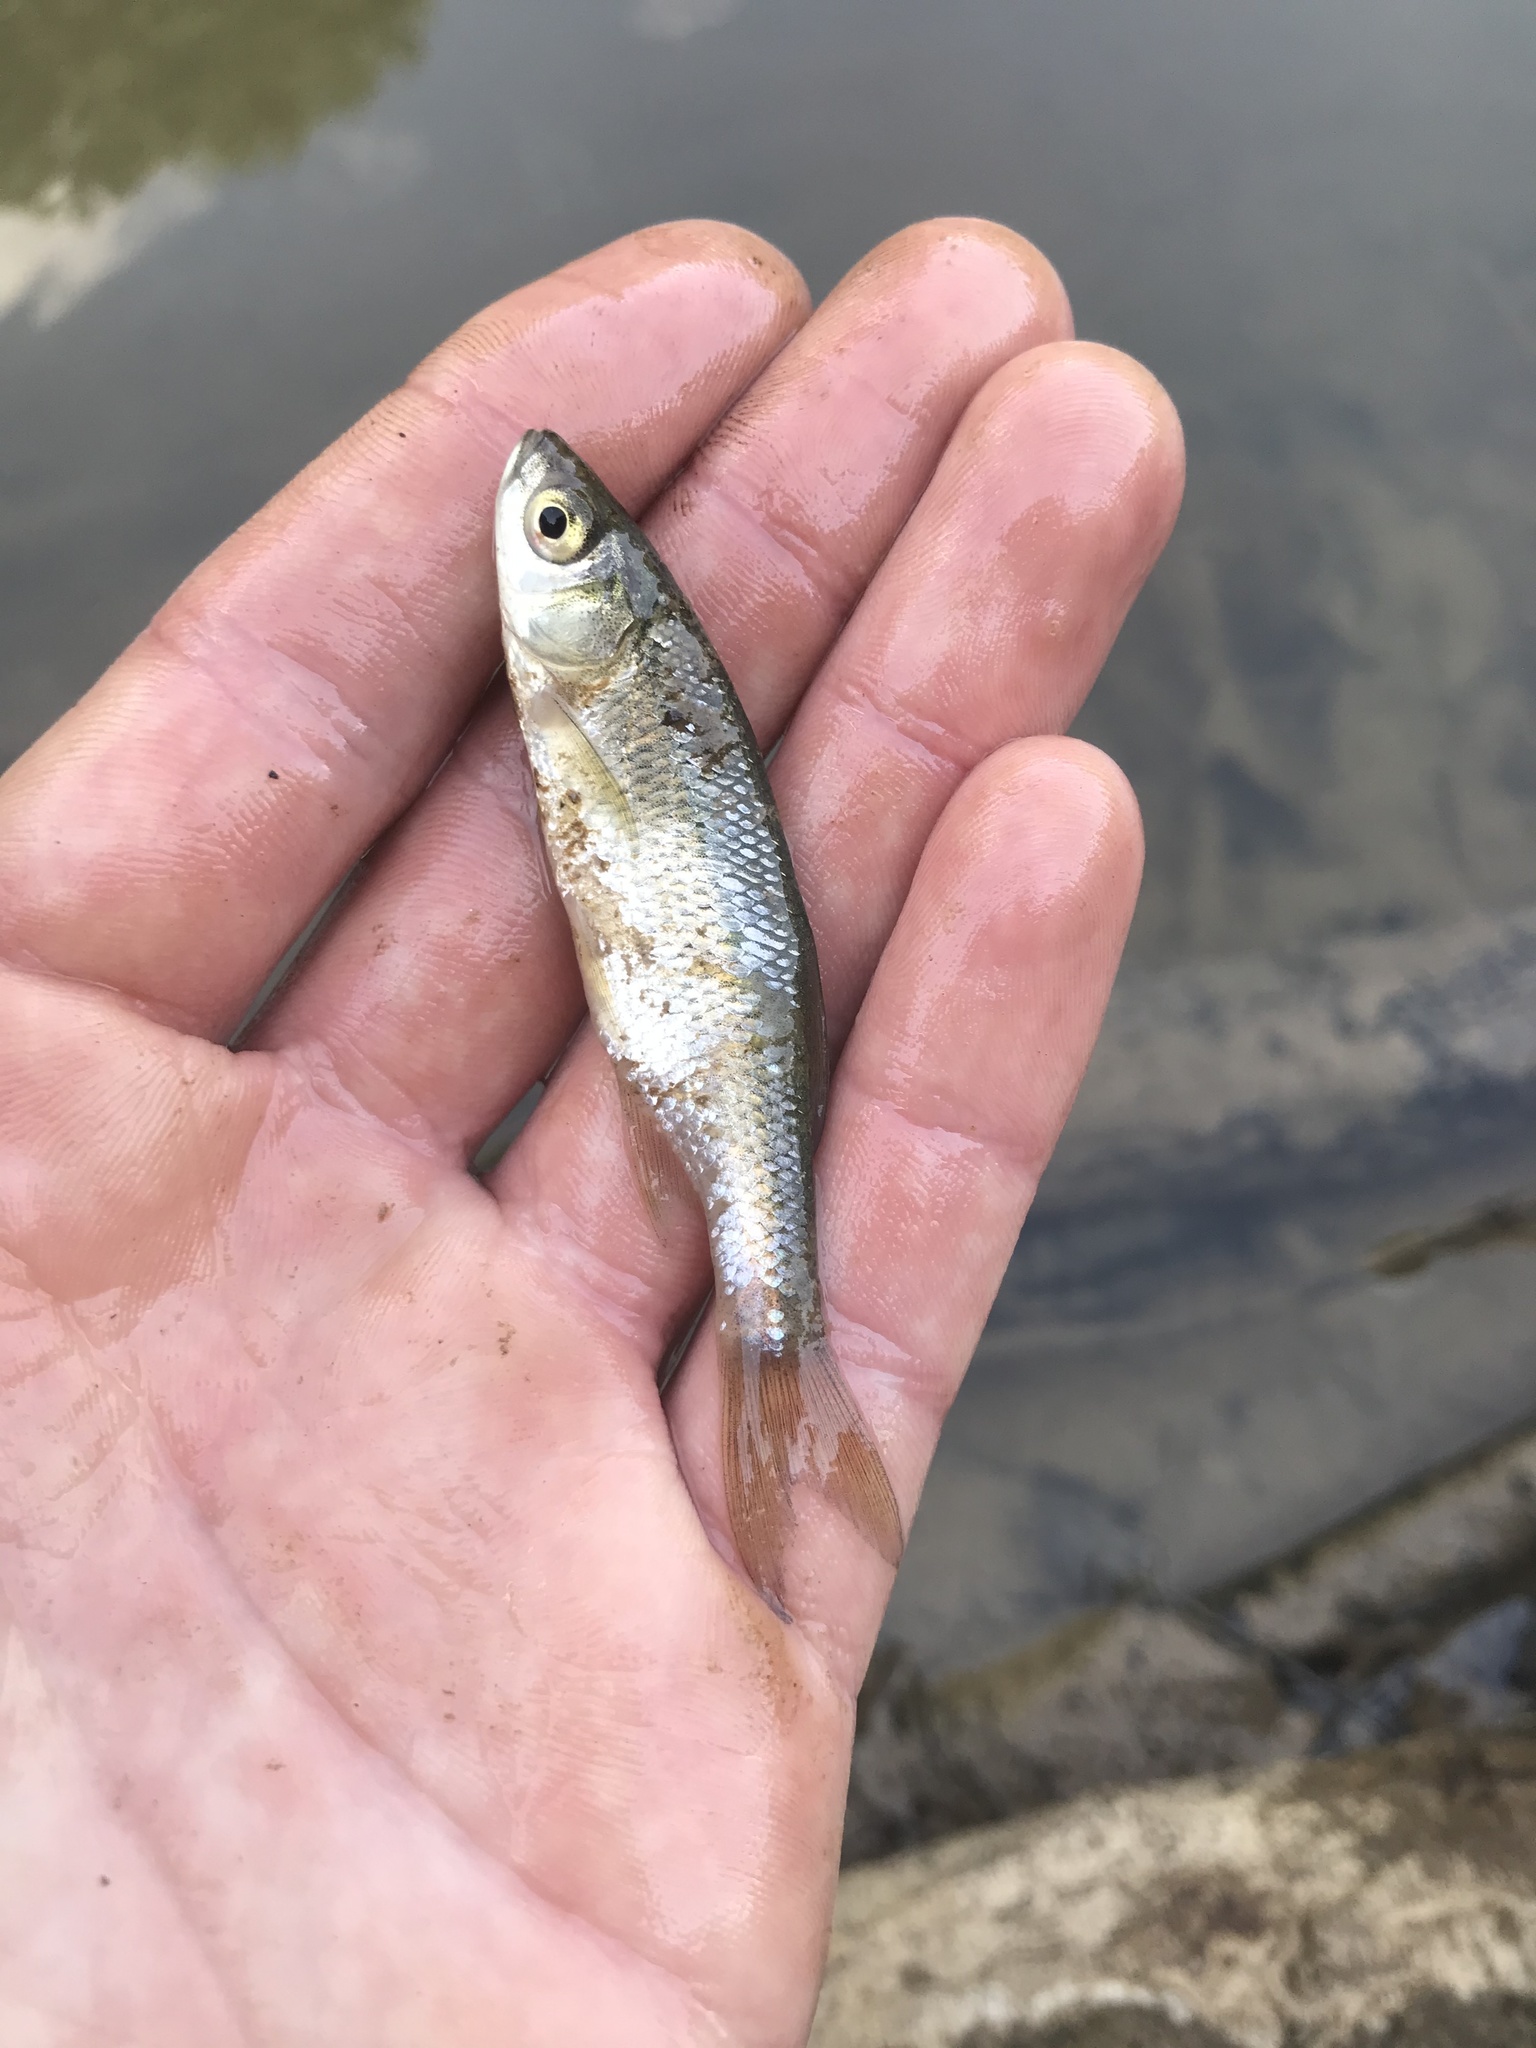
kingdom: Animalia
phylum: Chordata
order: Cypriniformes
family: Cyprinidae
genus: Notemigonus
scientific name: Notemigonus crysoleucas
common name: Golden shiner
